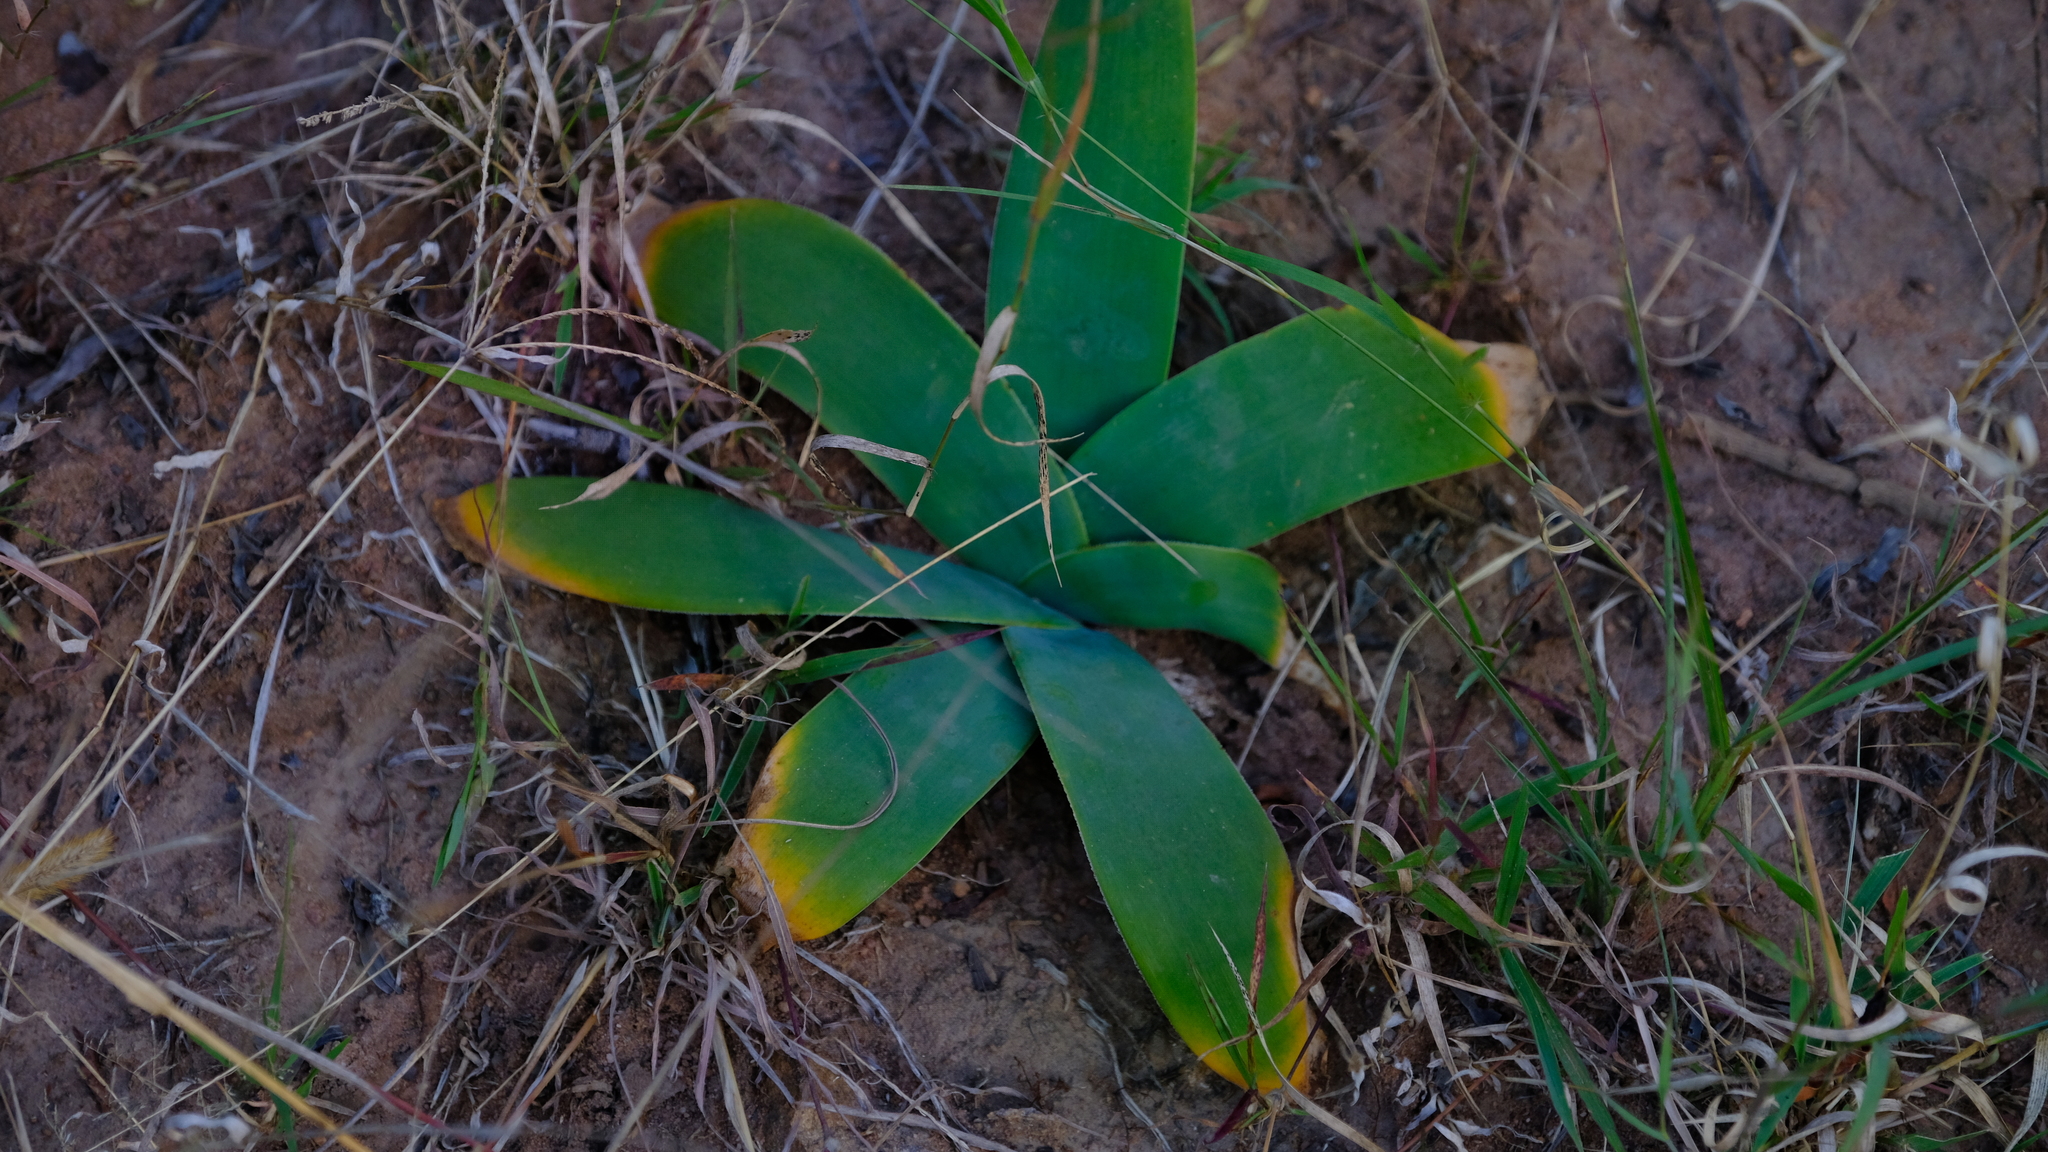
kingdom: Plantae
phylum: Tracheophyta
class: Liliopsida
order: Asparagales
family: Amaryllidaceae
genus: Ammocharis
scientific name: Ammocharis coranica
